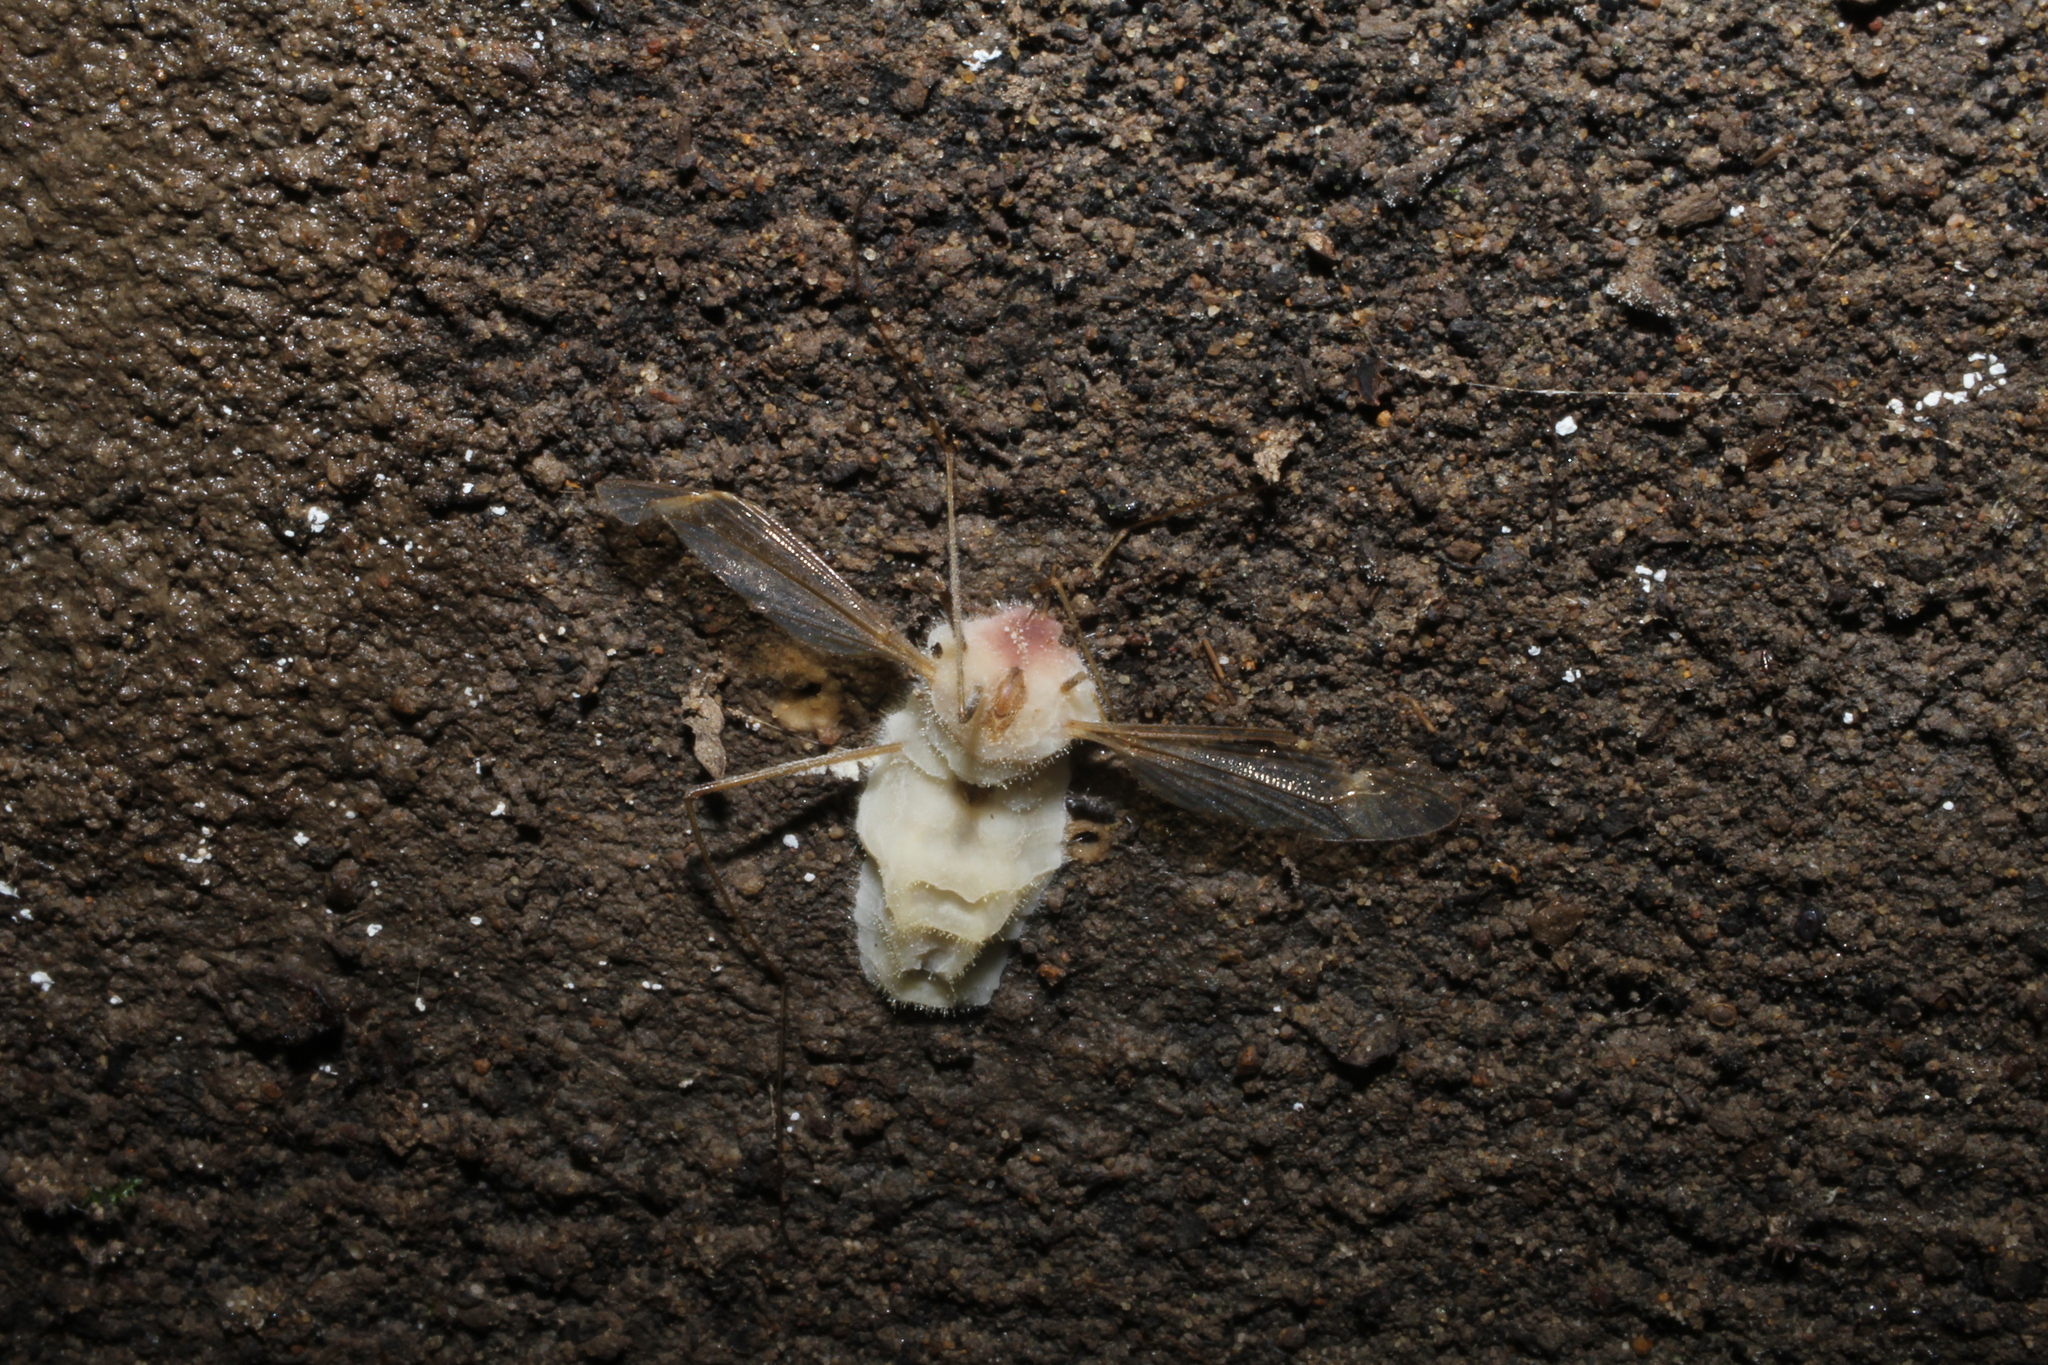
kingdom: Fungi
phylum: Entomophthoromycota
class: Entomophthoromycetes
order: Entomophthorales
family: Entomophthoraceae
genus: Erynia
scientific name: Erynia sepulchralis
